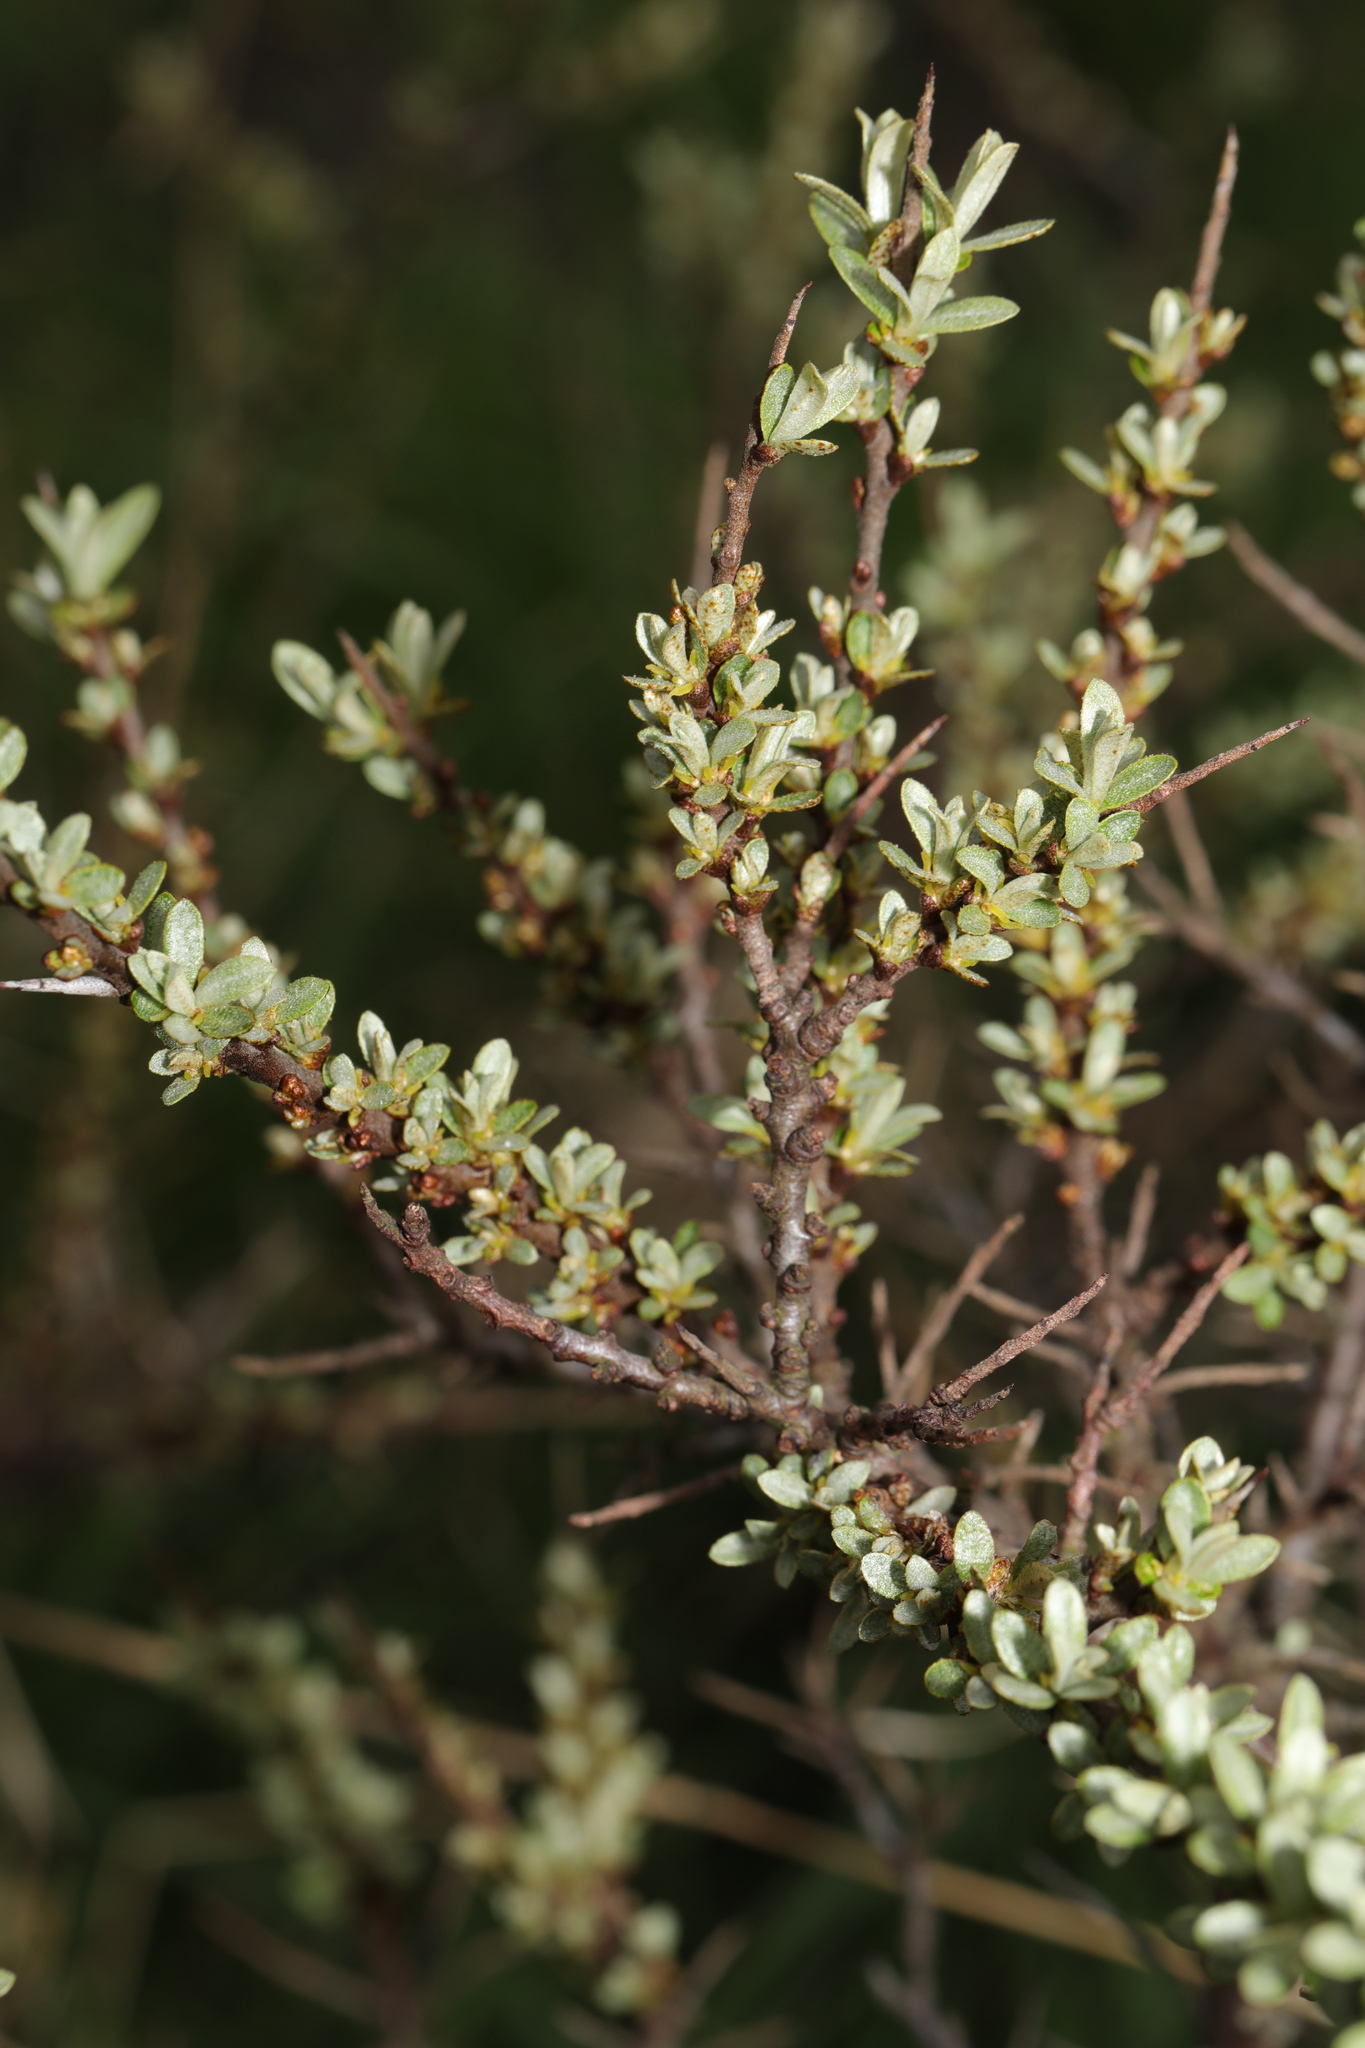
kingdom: Plantae
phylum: Tracheophyta
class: Magnoliopsida
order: Rosales
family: Elaeagnaceae
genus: Hippophae
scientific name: Hippophae rhamnoides
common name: Sea-buckthorn
